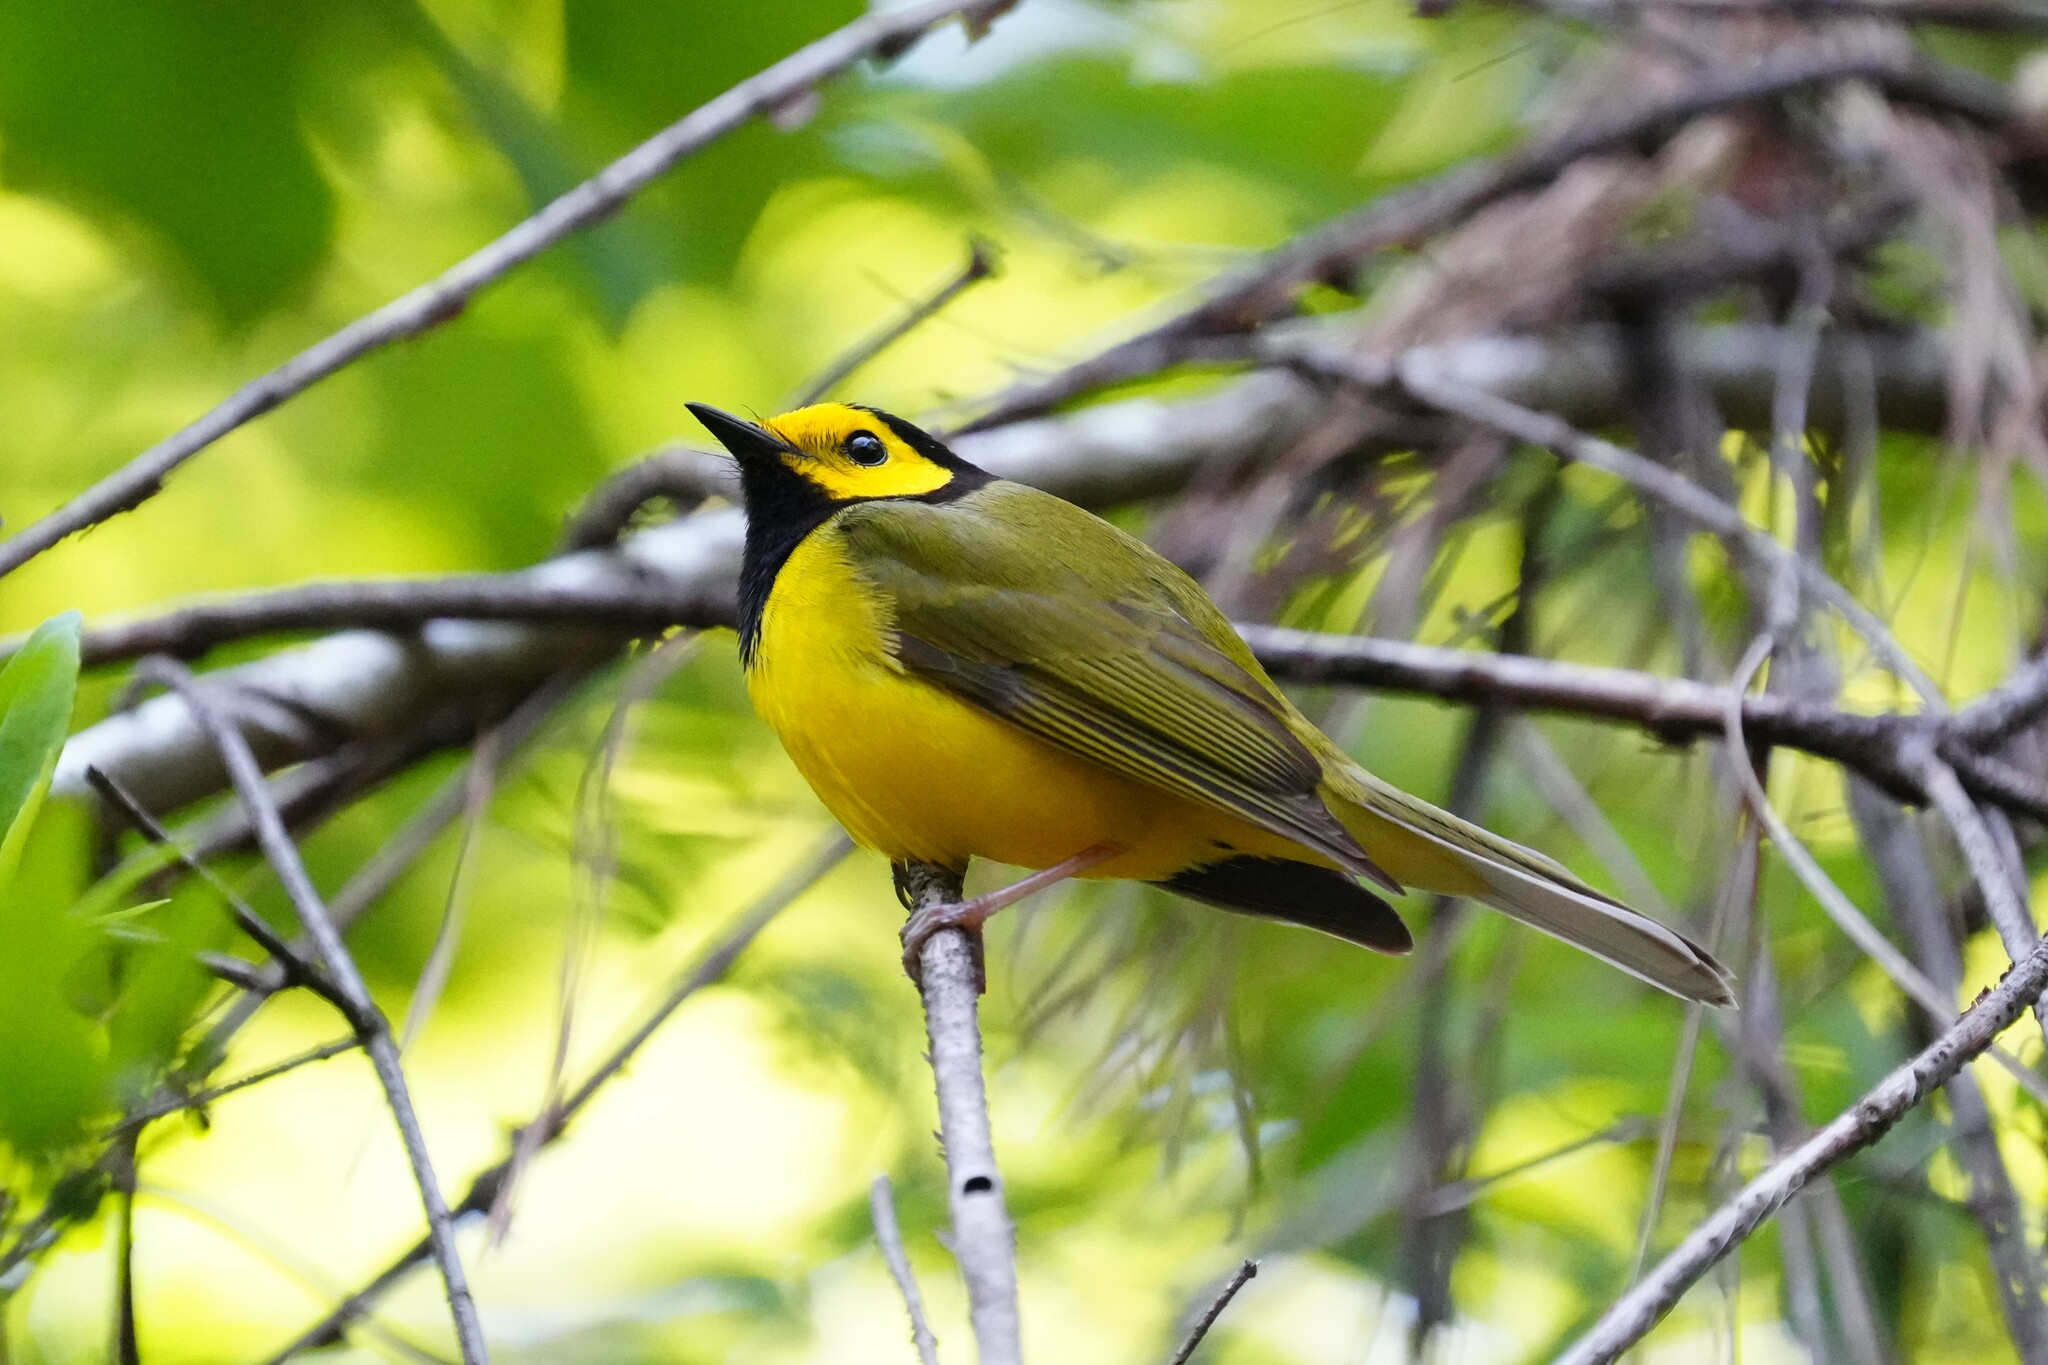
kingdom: Animalia
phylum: Chordata
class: Aves
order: Passeriformes
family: Parulidae
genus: Setophaga
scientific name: Setophaga citrina
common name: Hooded warbler
